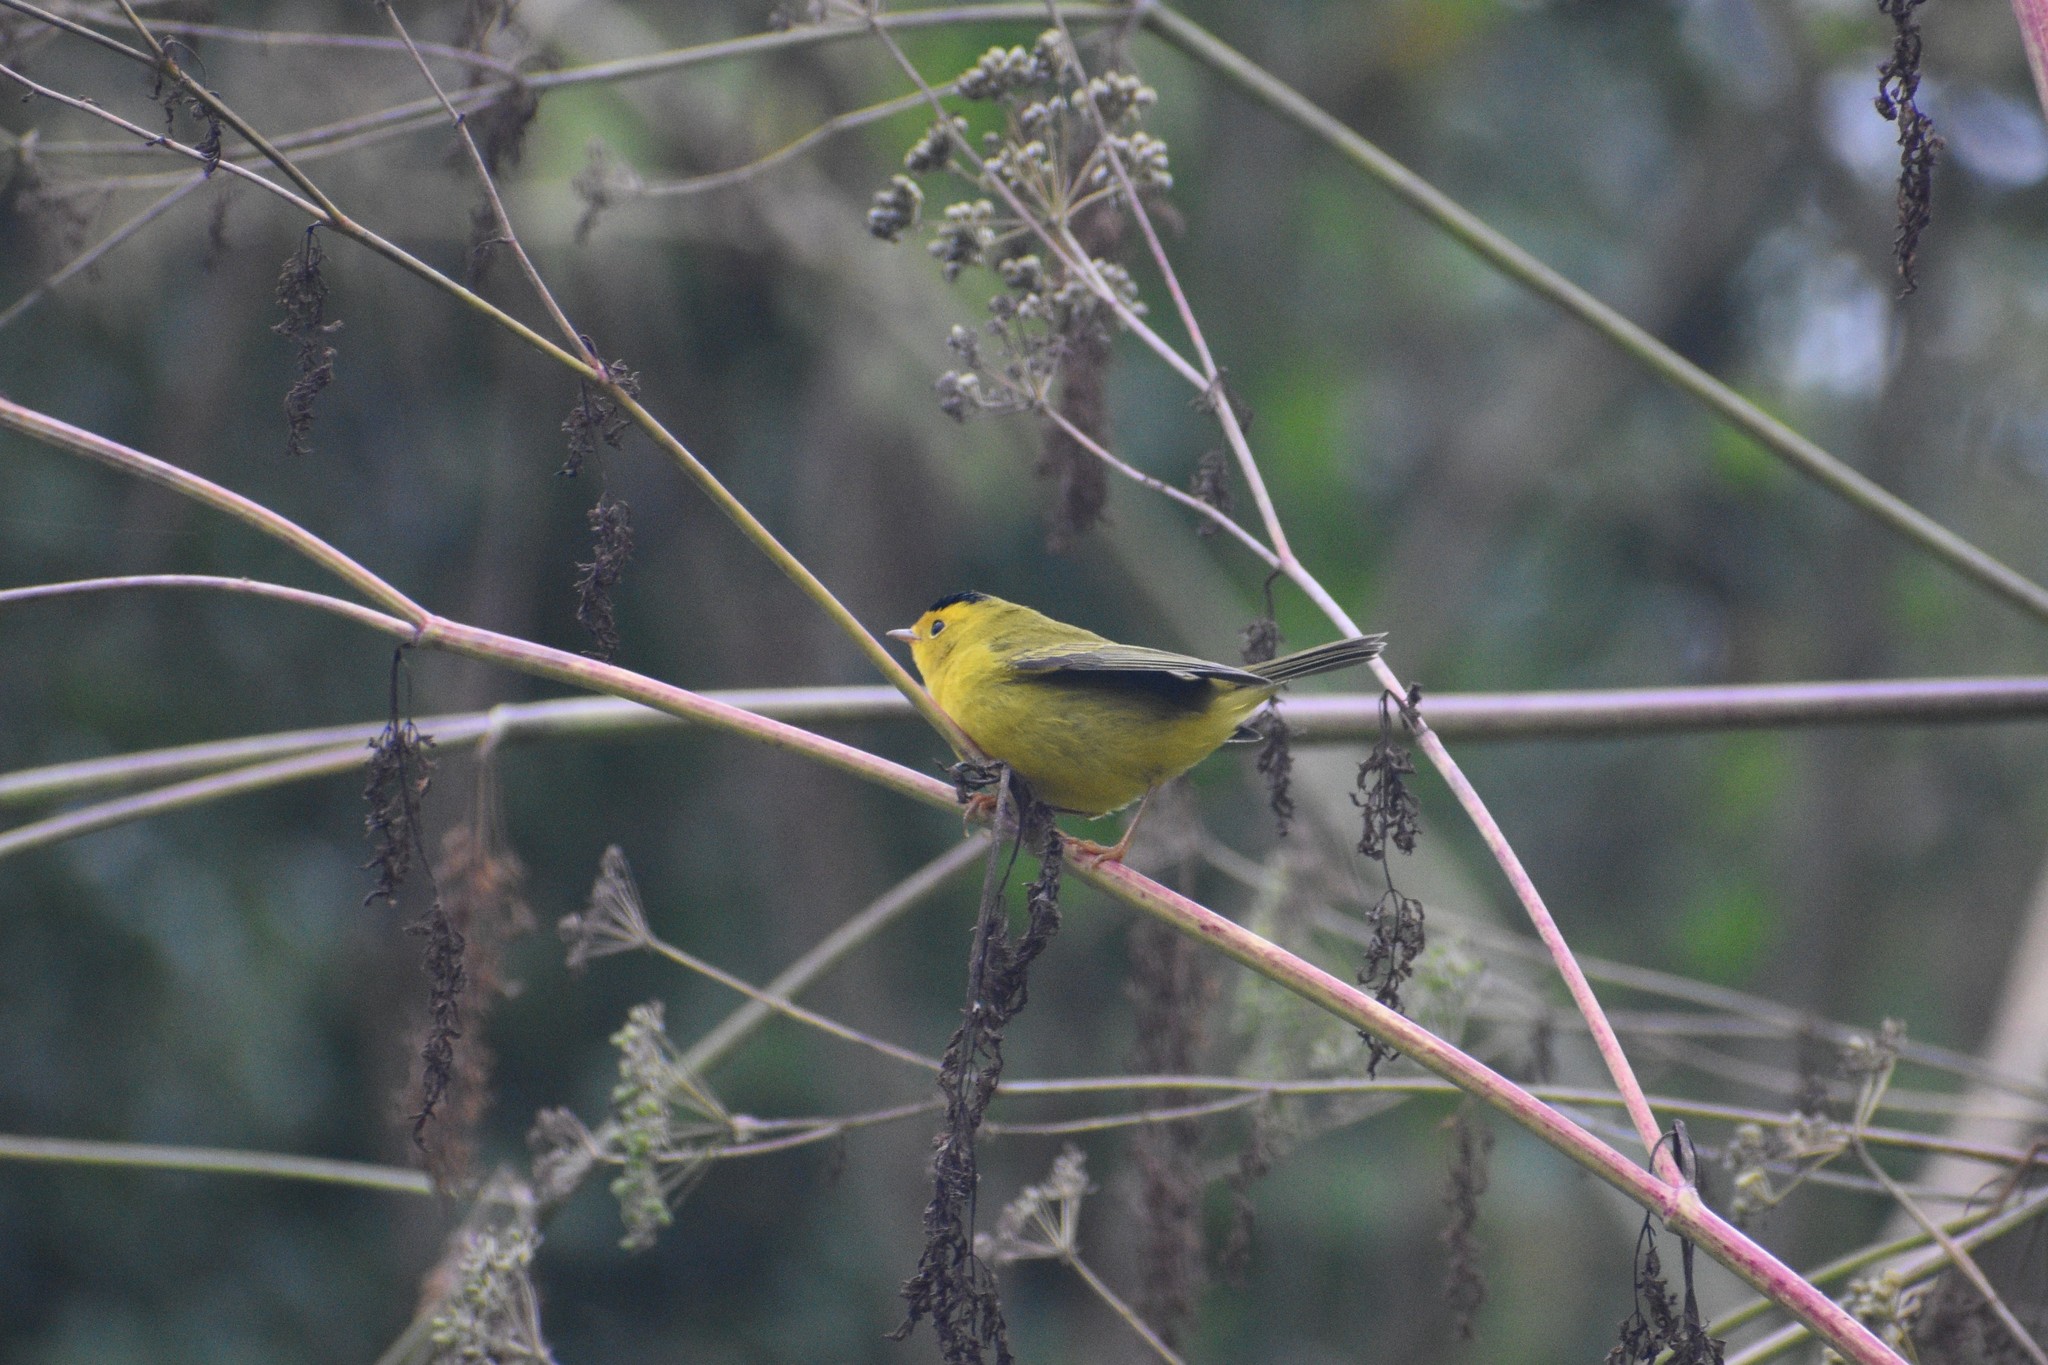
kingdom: Animalia
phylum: Chordata
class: Aves
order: Passeriformes
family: Parulidae
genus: Cardellina
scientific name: Cardellina pusilla
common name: Wilson's warbler
